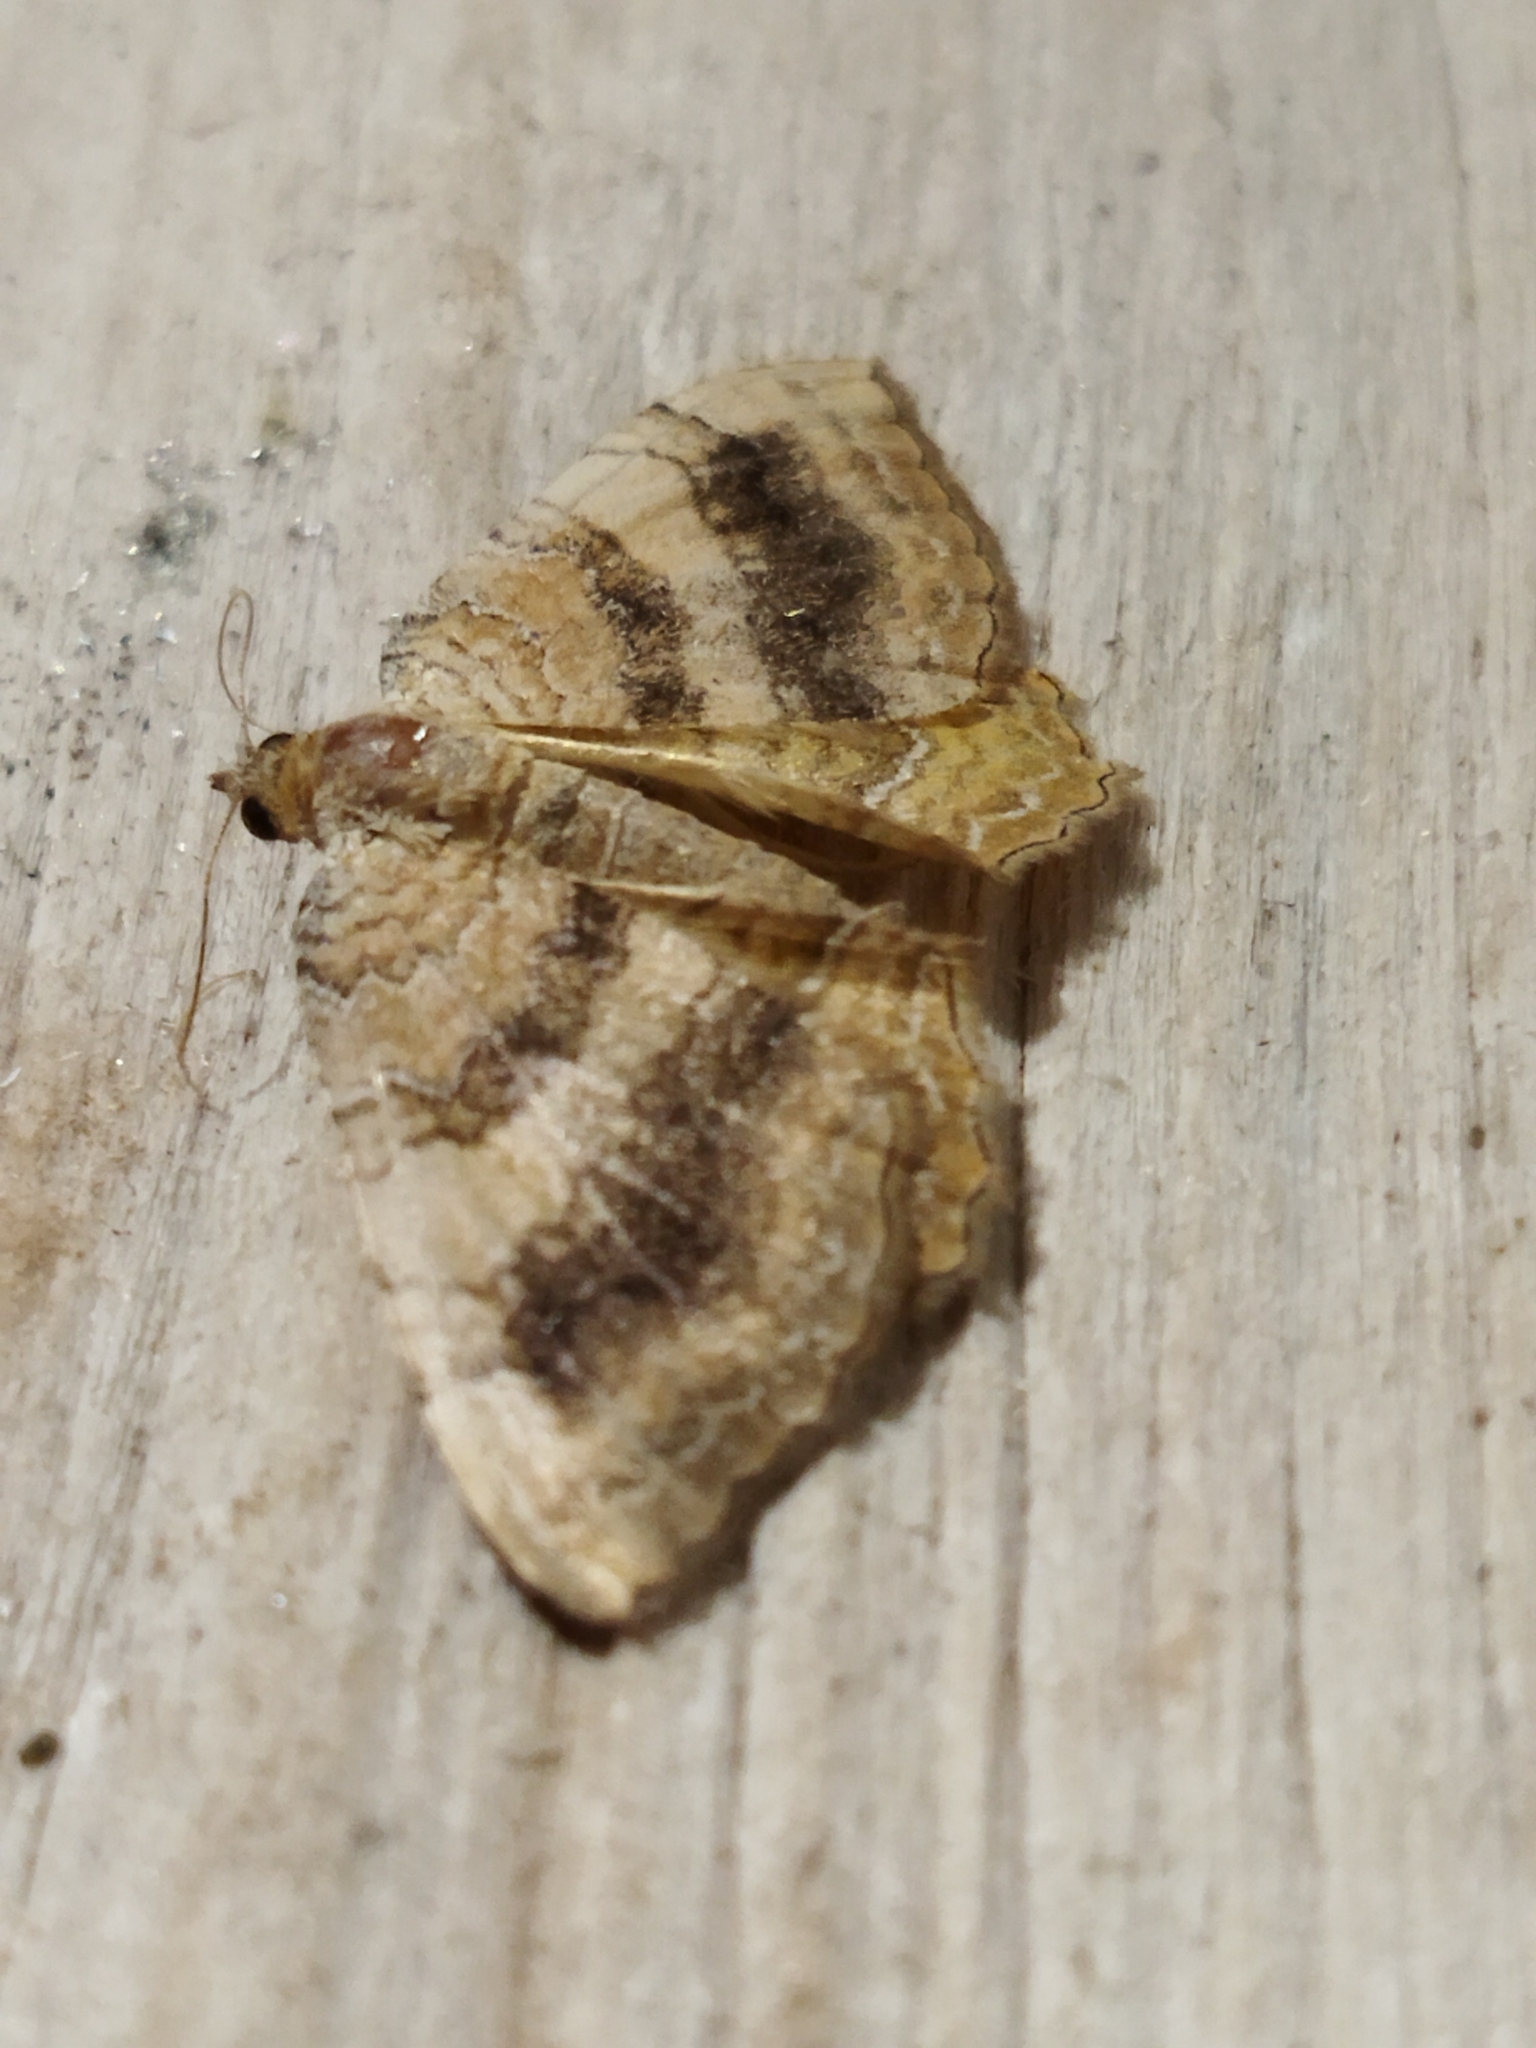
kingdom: Animalia
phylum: Arthropoda
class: Insecta
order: Lepidoptera
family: Geometridae
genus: Camptogramma
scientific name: Camptogramma bilineata
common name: Yellow shell
